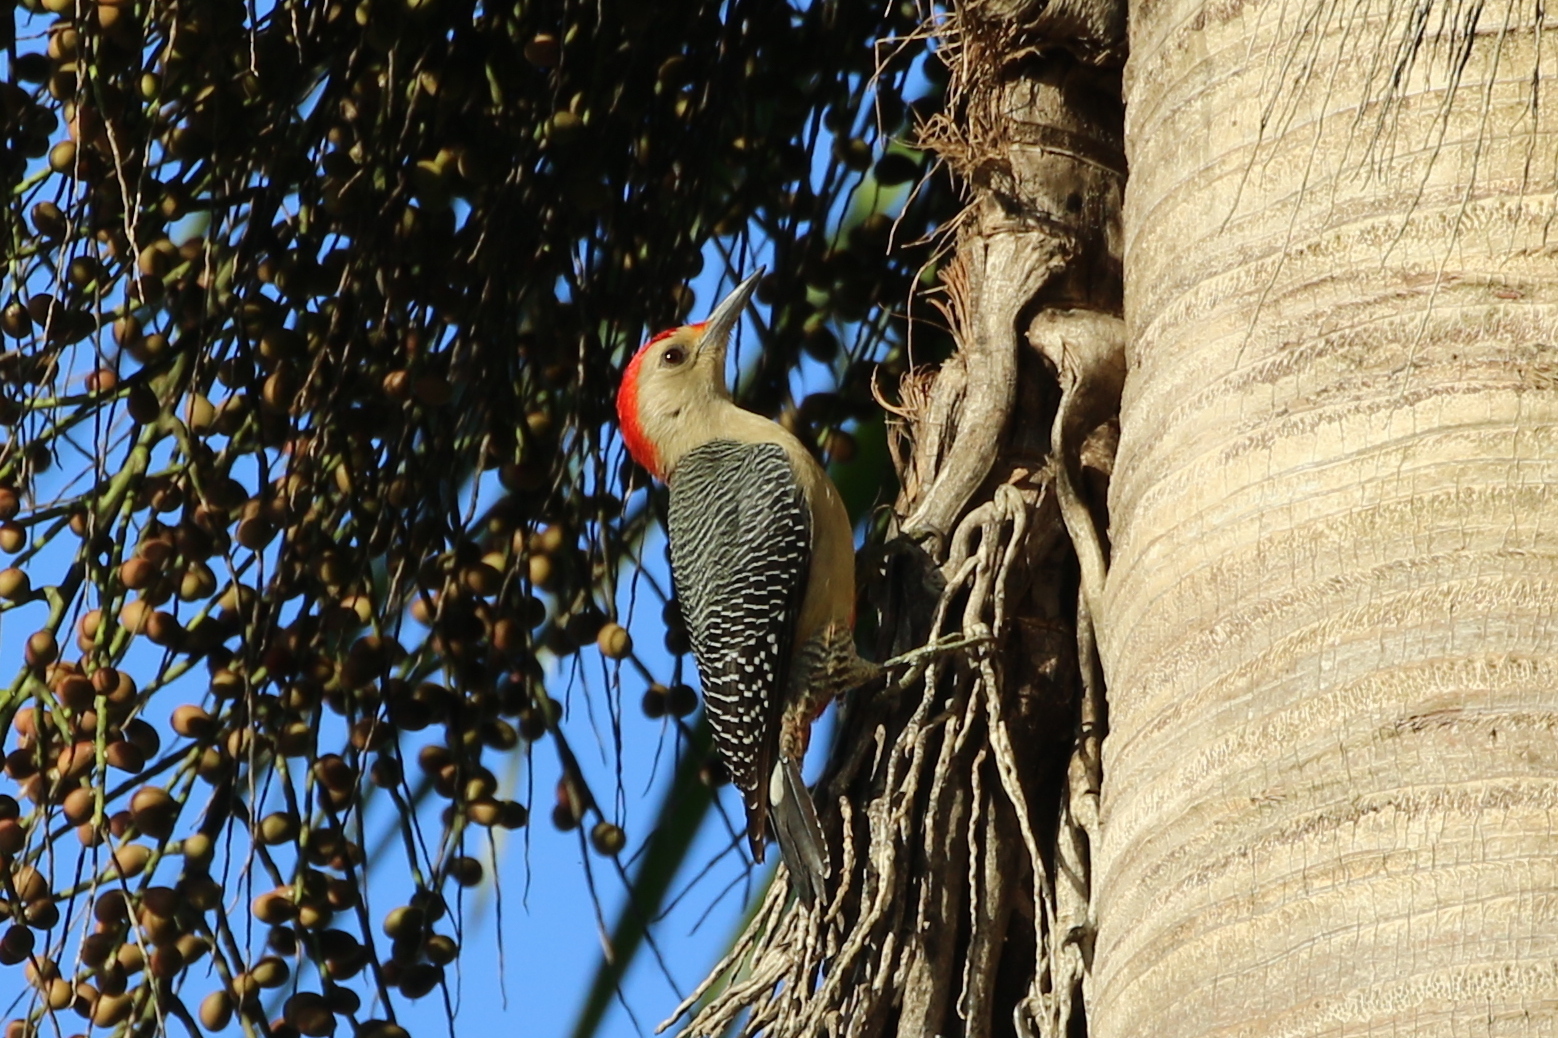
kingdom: Animalia
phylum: Chordata
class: Aves
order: Piciformes
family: Picidae
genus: Melanerpes
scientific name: Melanerpes aurifrons
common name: Golden-fronted woodpecker
